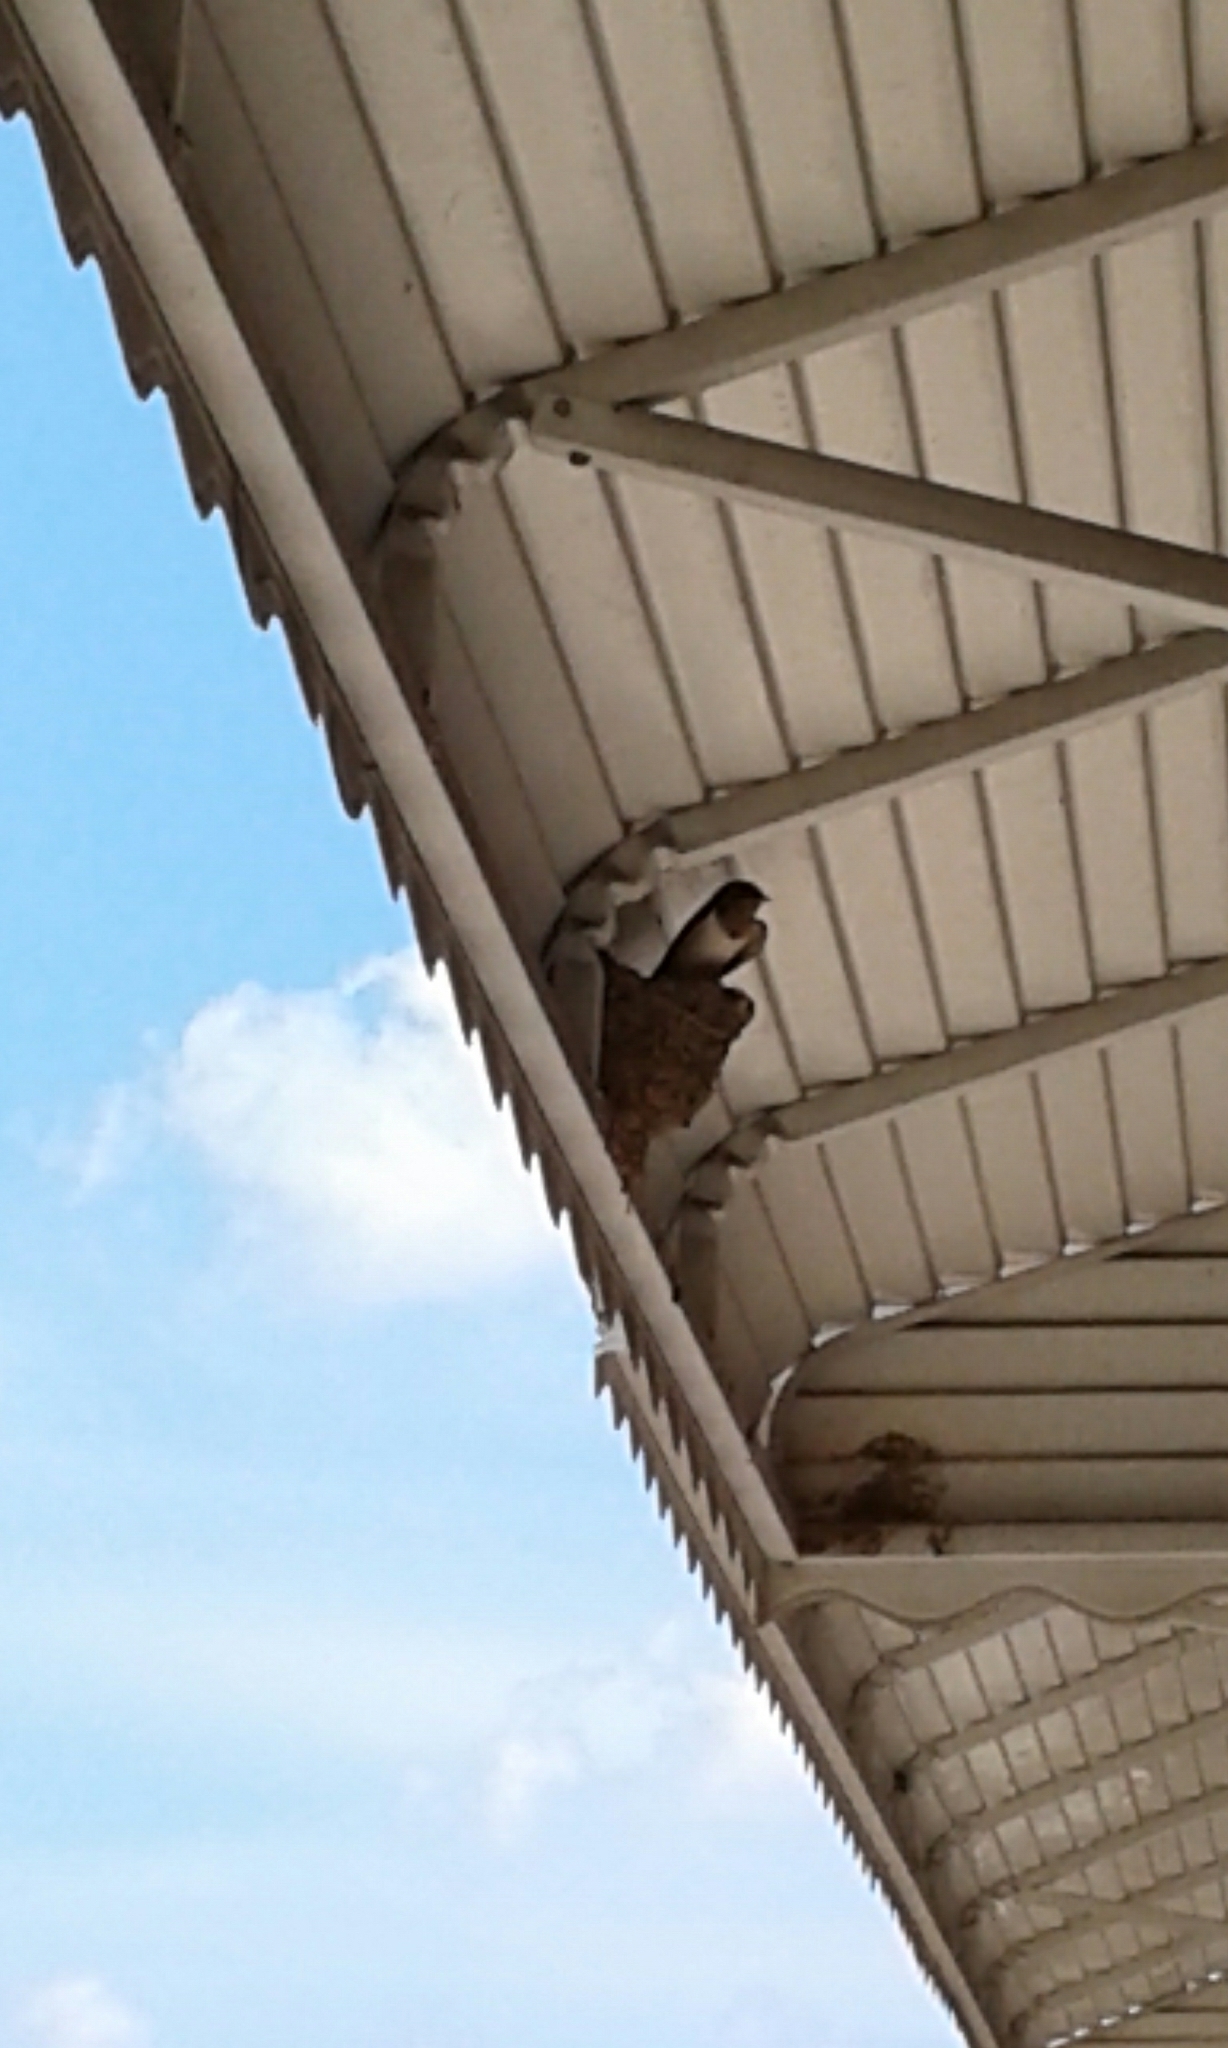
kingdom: Animalia
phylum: Chordata
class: Aves
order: Passeriformes
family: Hirundinidae
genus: Hirundo
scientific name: Hirundo rustica
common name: Barn swallow
